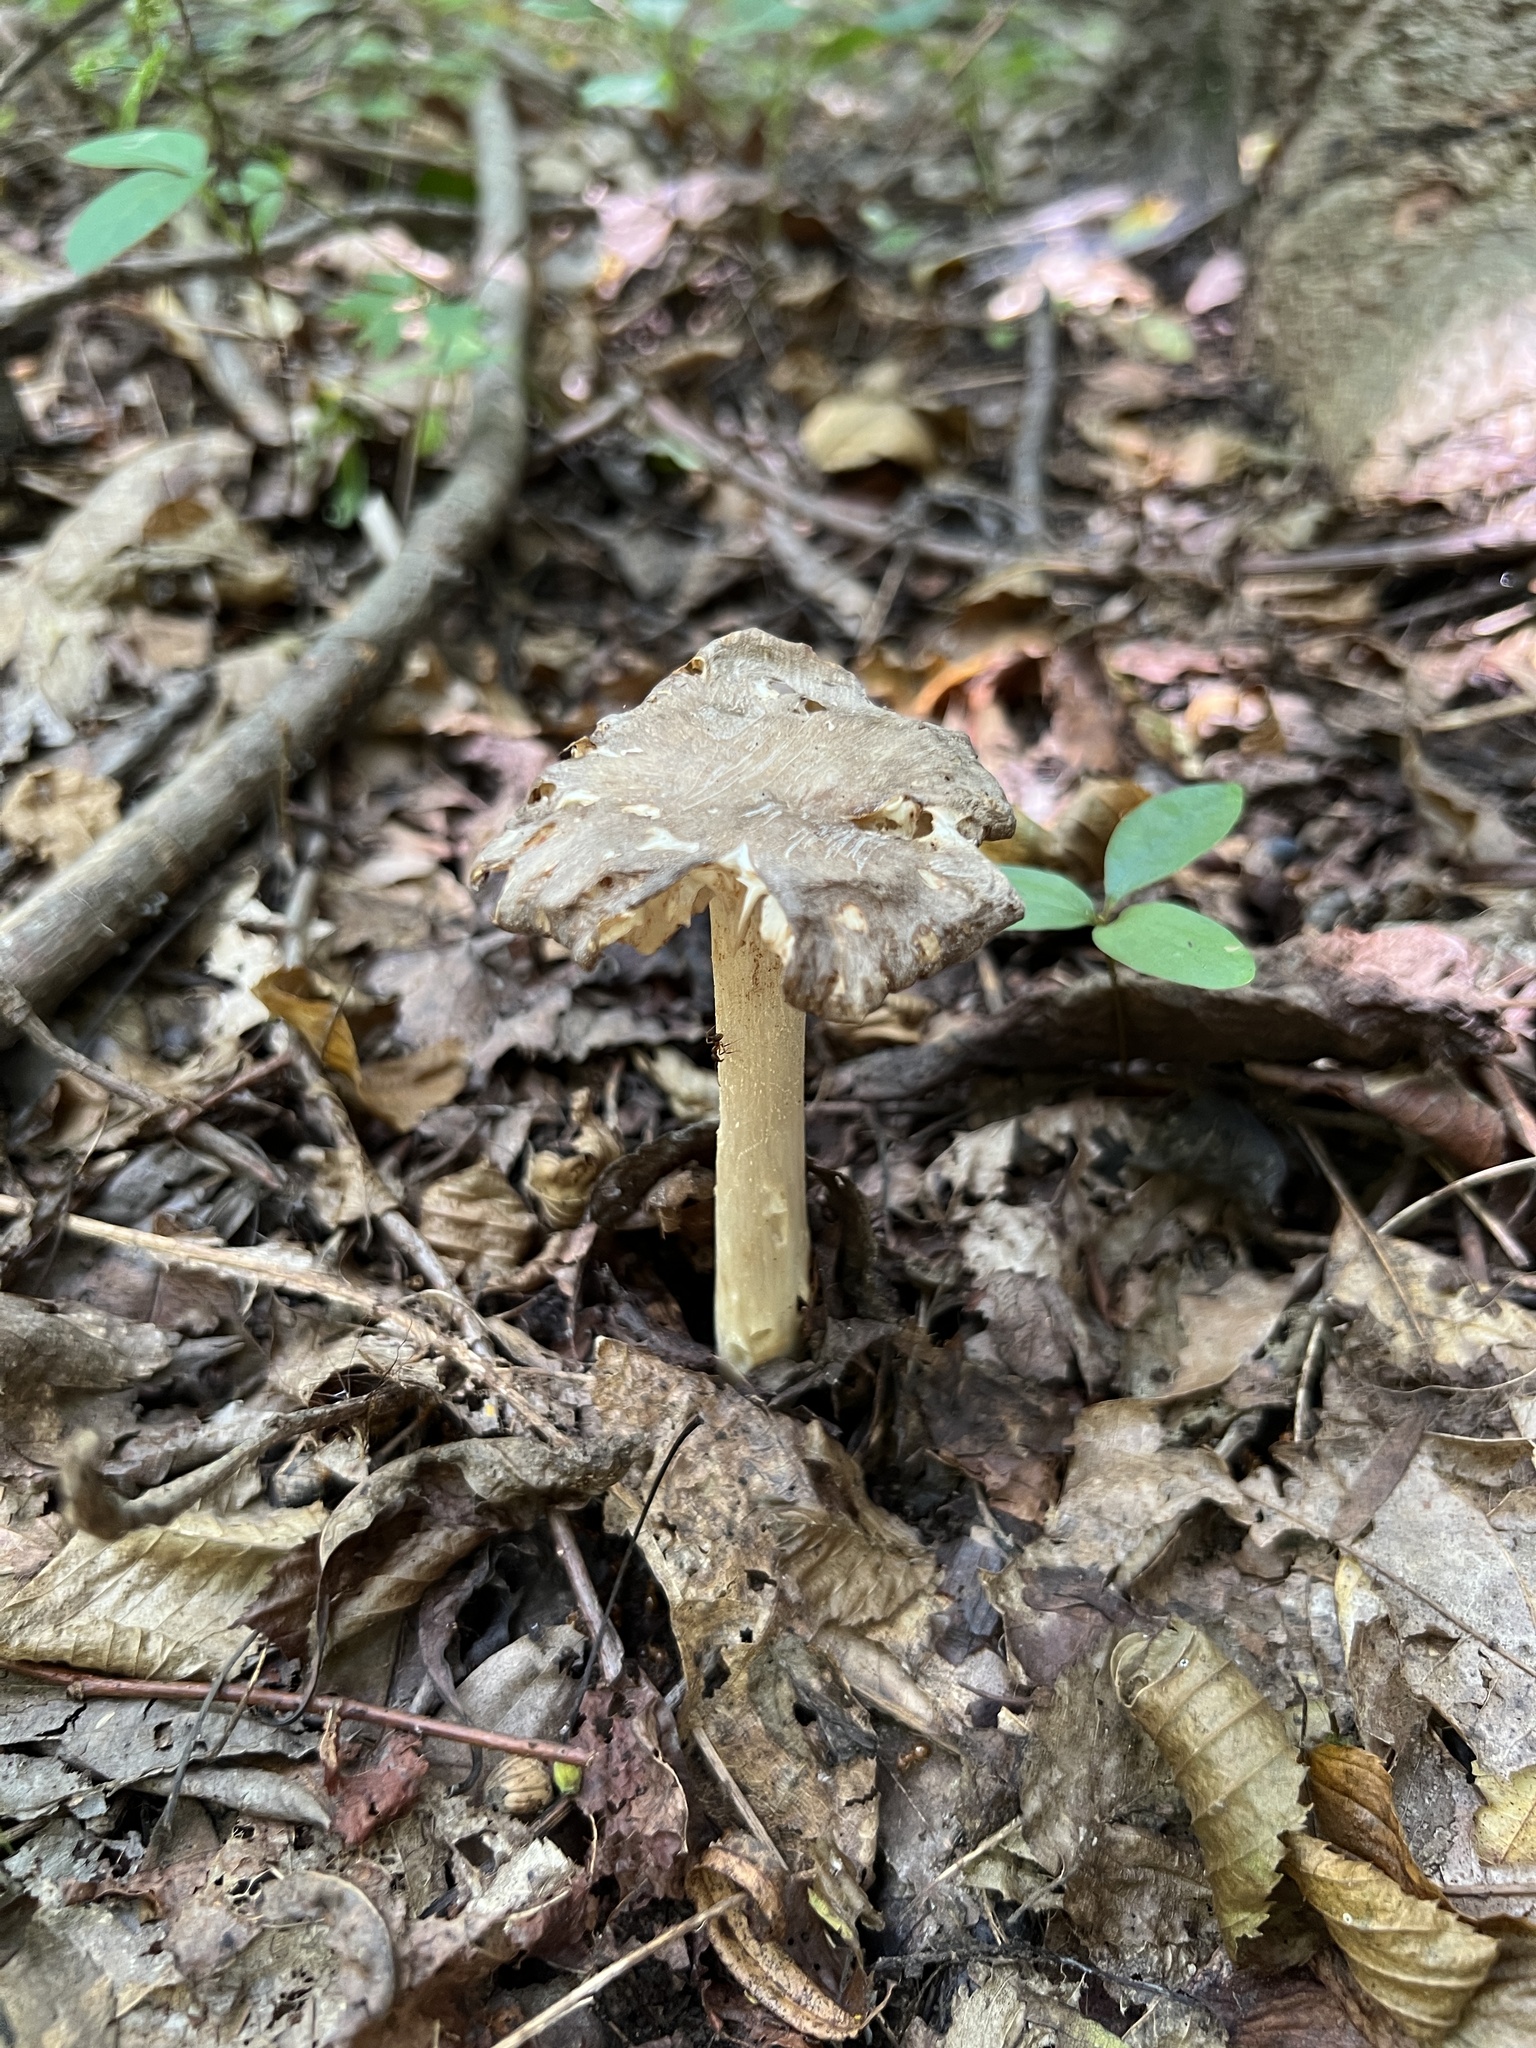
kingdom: Fungi
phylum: Basidiomycota
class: Agaricomycetes
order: Agaricales
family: Tricholomataceae
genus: Megacollybia
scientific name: Megacollybia rodmanii
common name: Eastern american platterful mushroom
